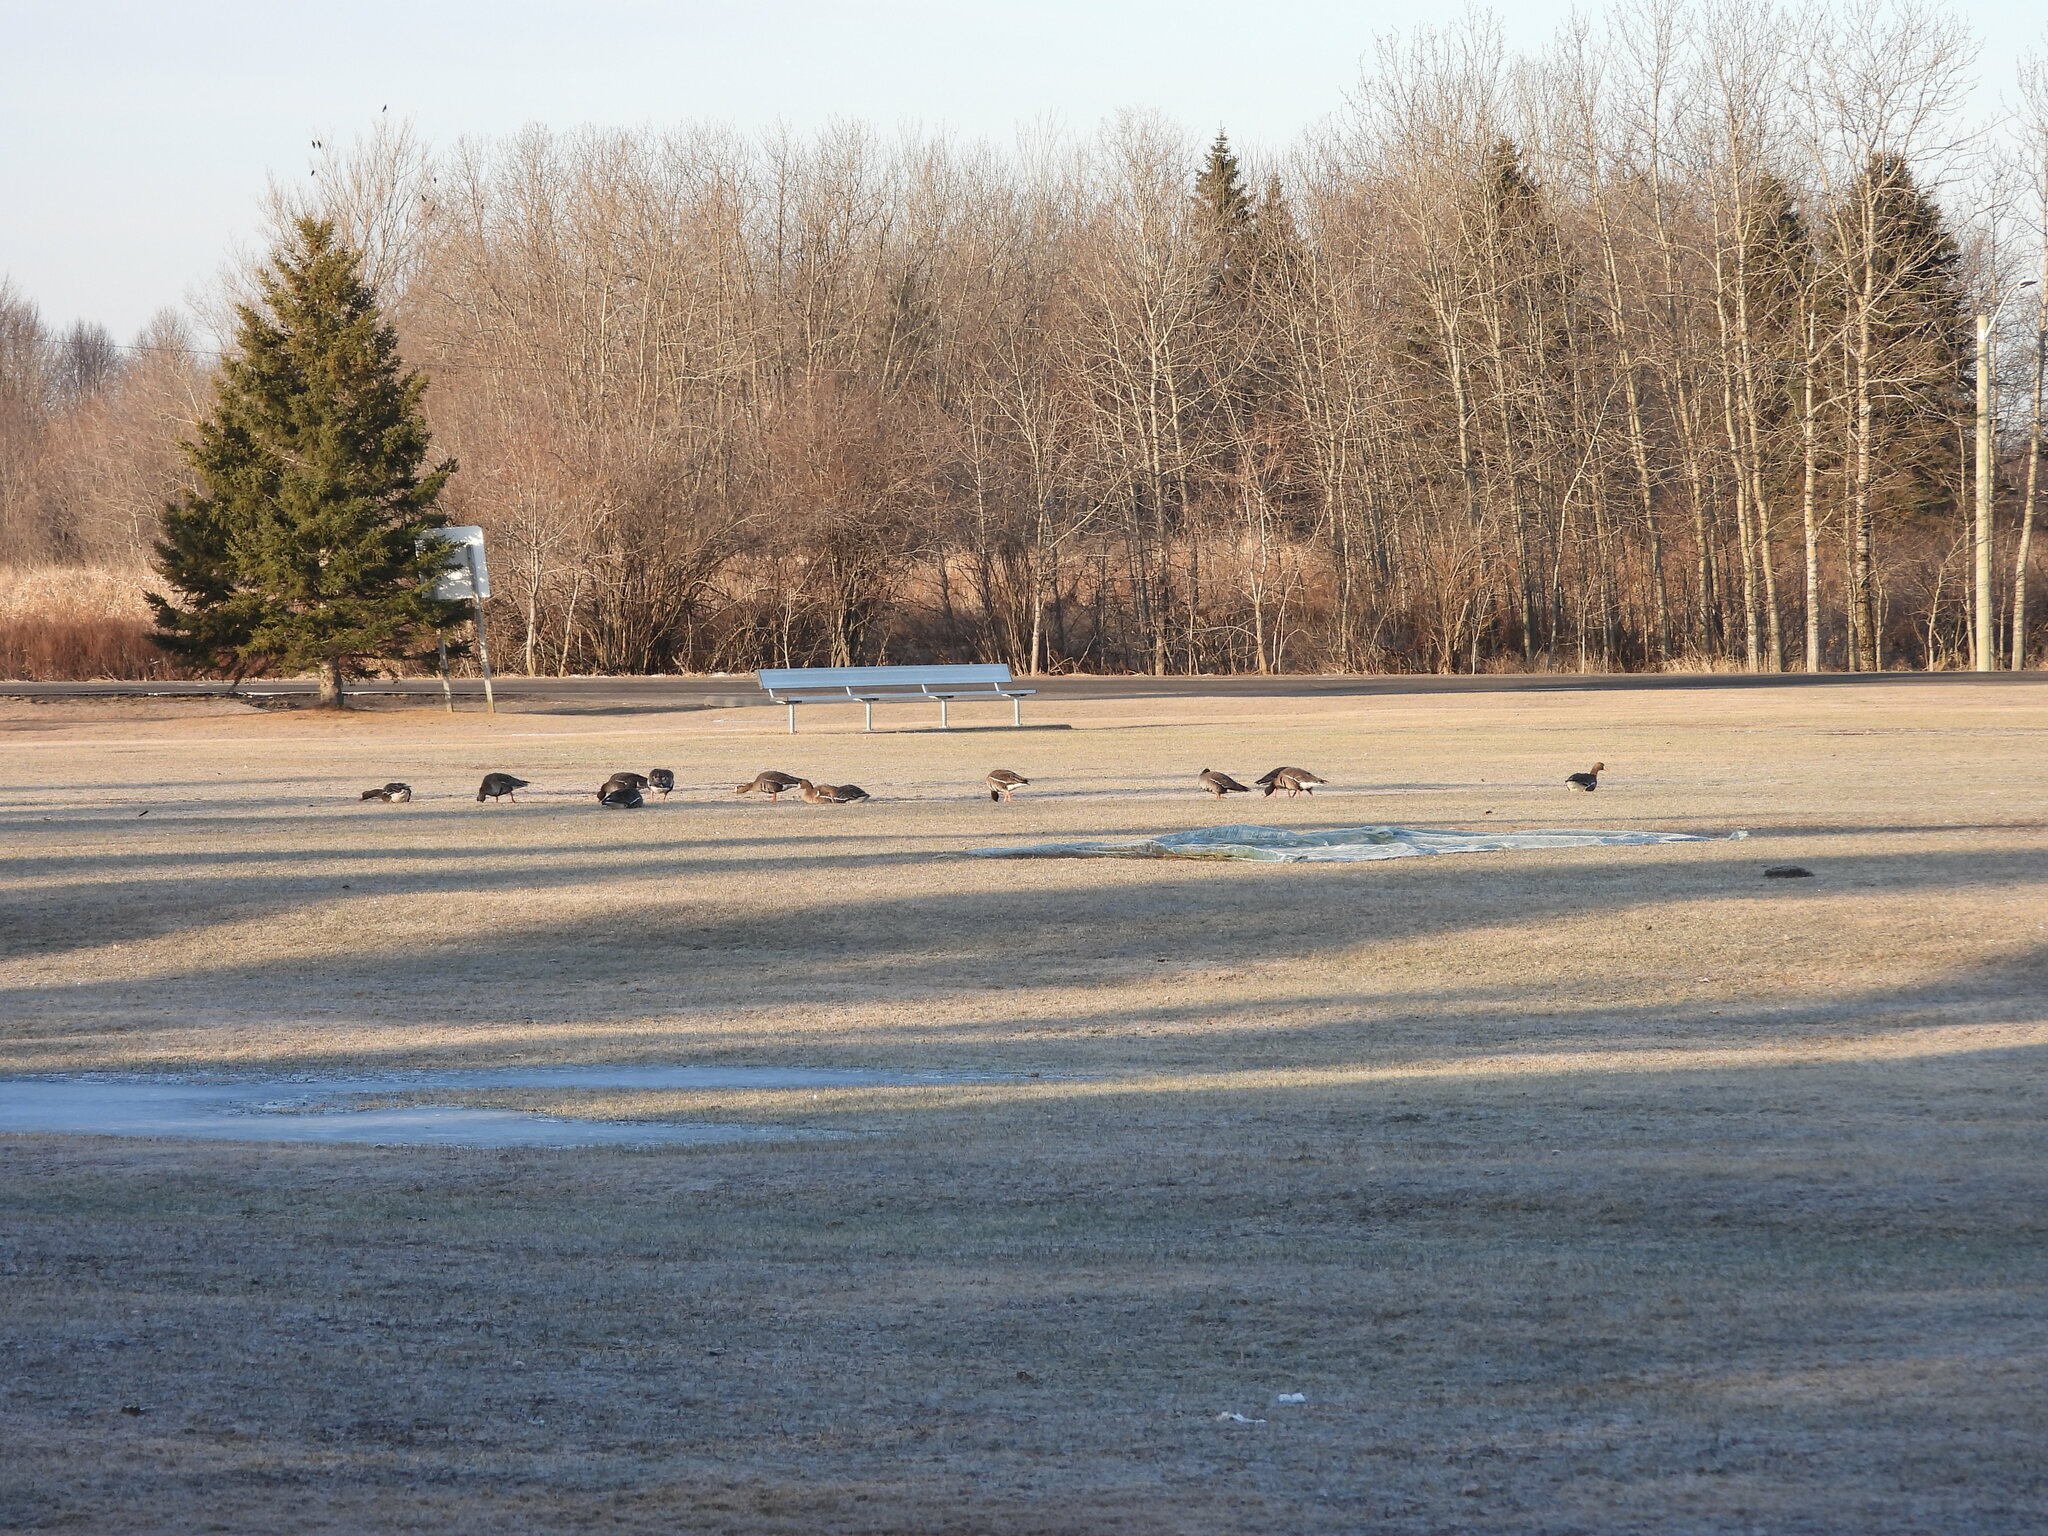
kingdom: Animalia
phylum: Chordata
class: Aves
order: Anseriformes
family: Anatidae
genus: Anser
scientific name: Anser albifrons
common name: Greater white-fronted goose
